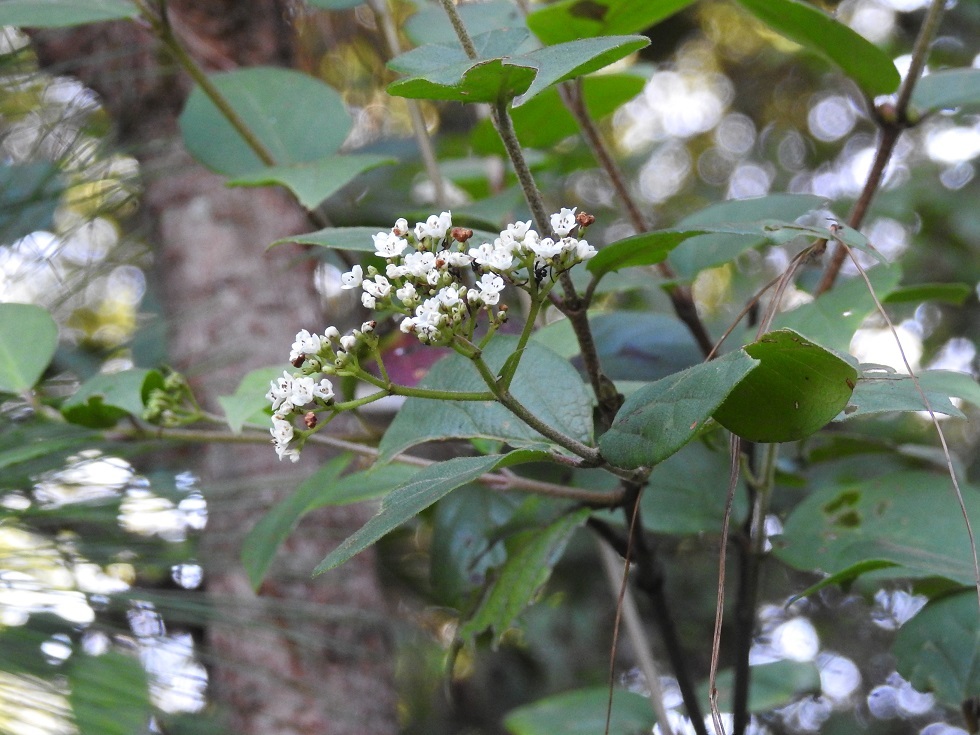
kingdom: Plantae
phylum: Tracheophyta
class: Magnoliopsida
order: Dipsacales
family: Viburnaceae
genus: Viburnum
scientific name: Viburnum lautum
